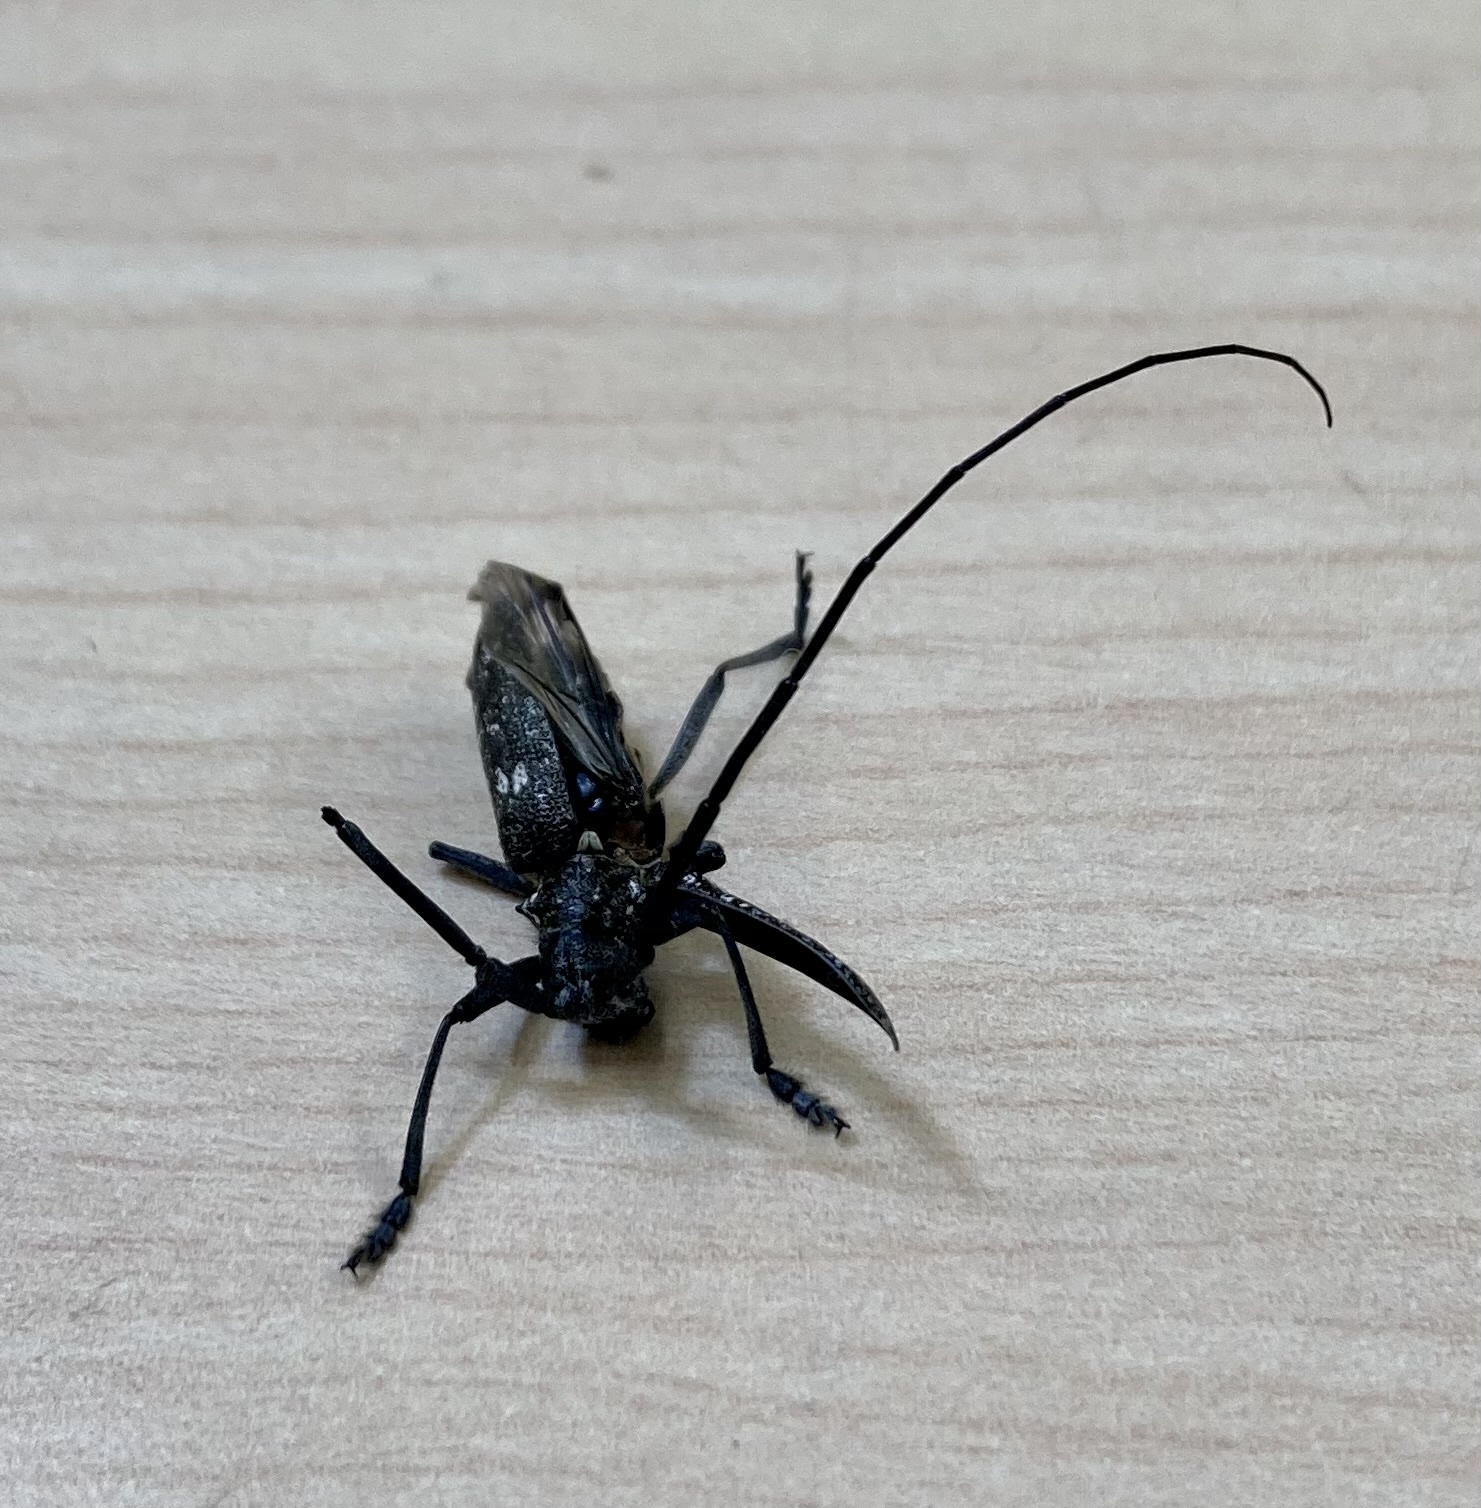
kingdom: Animalia
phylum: Arthropoda
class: Insecta
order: Coleoptera
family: Cerambycidae
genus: Monochamus
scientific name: Monochamus scutellatus
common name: White-spotted sawyer beetle
